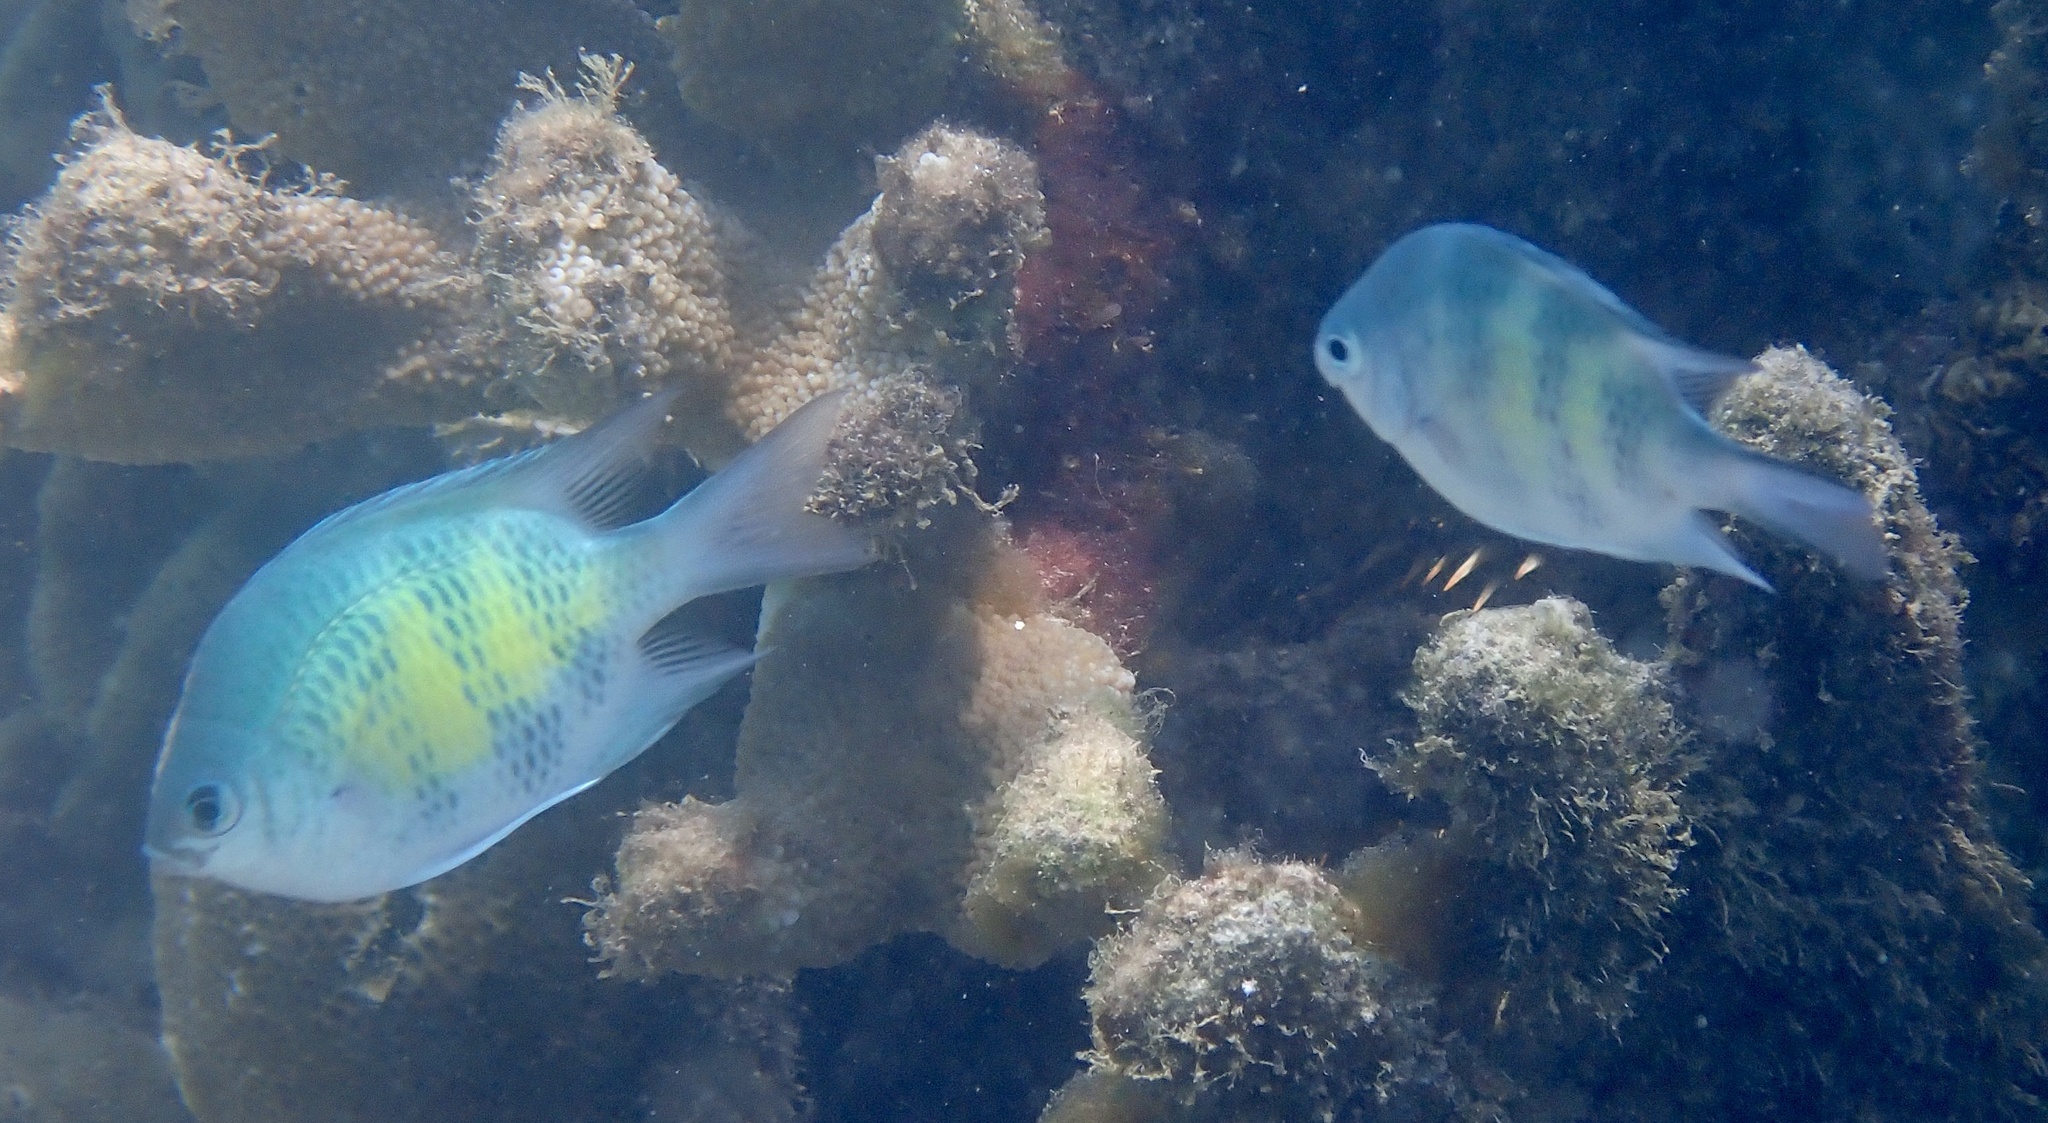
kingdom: Animalia
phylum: Chordata
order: Perciformes
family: Pomacentridae
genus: Amblyglyphidodon
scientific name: Amblyglyphidodon curacao
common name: Staghorn damsel
